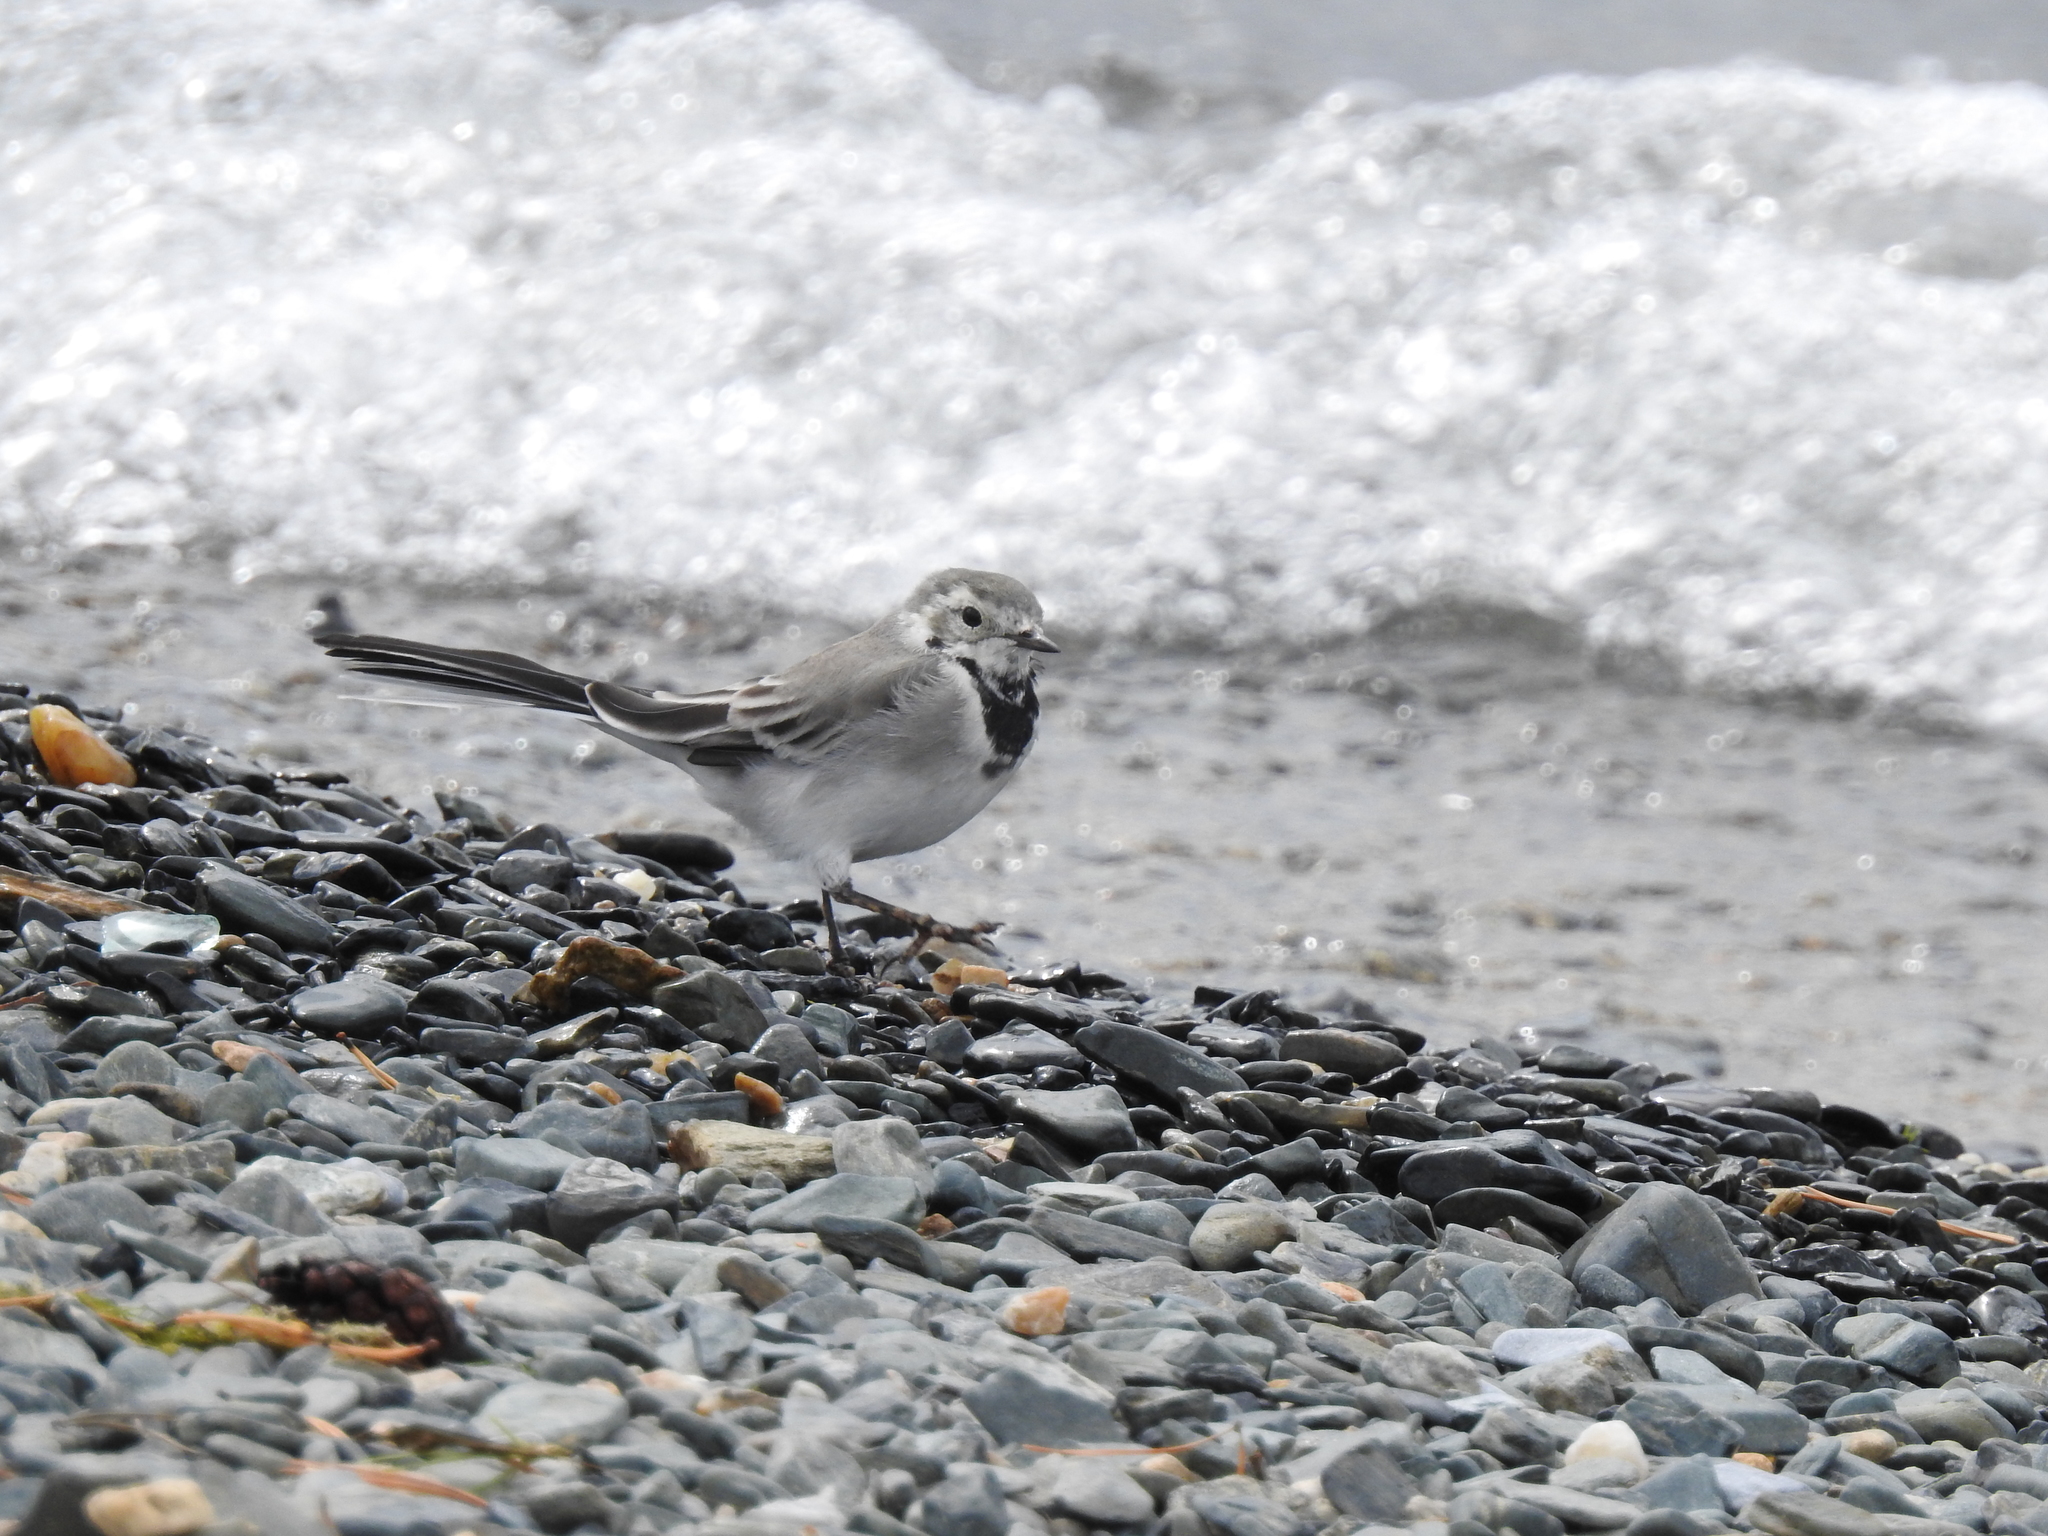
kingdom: Animalia
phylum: Chordata
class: Aves
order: Passeriformes
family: Motacillidae
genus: Motacilla
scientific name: Motacilla alba
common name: White wagtail
